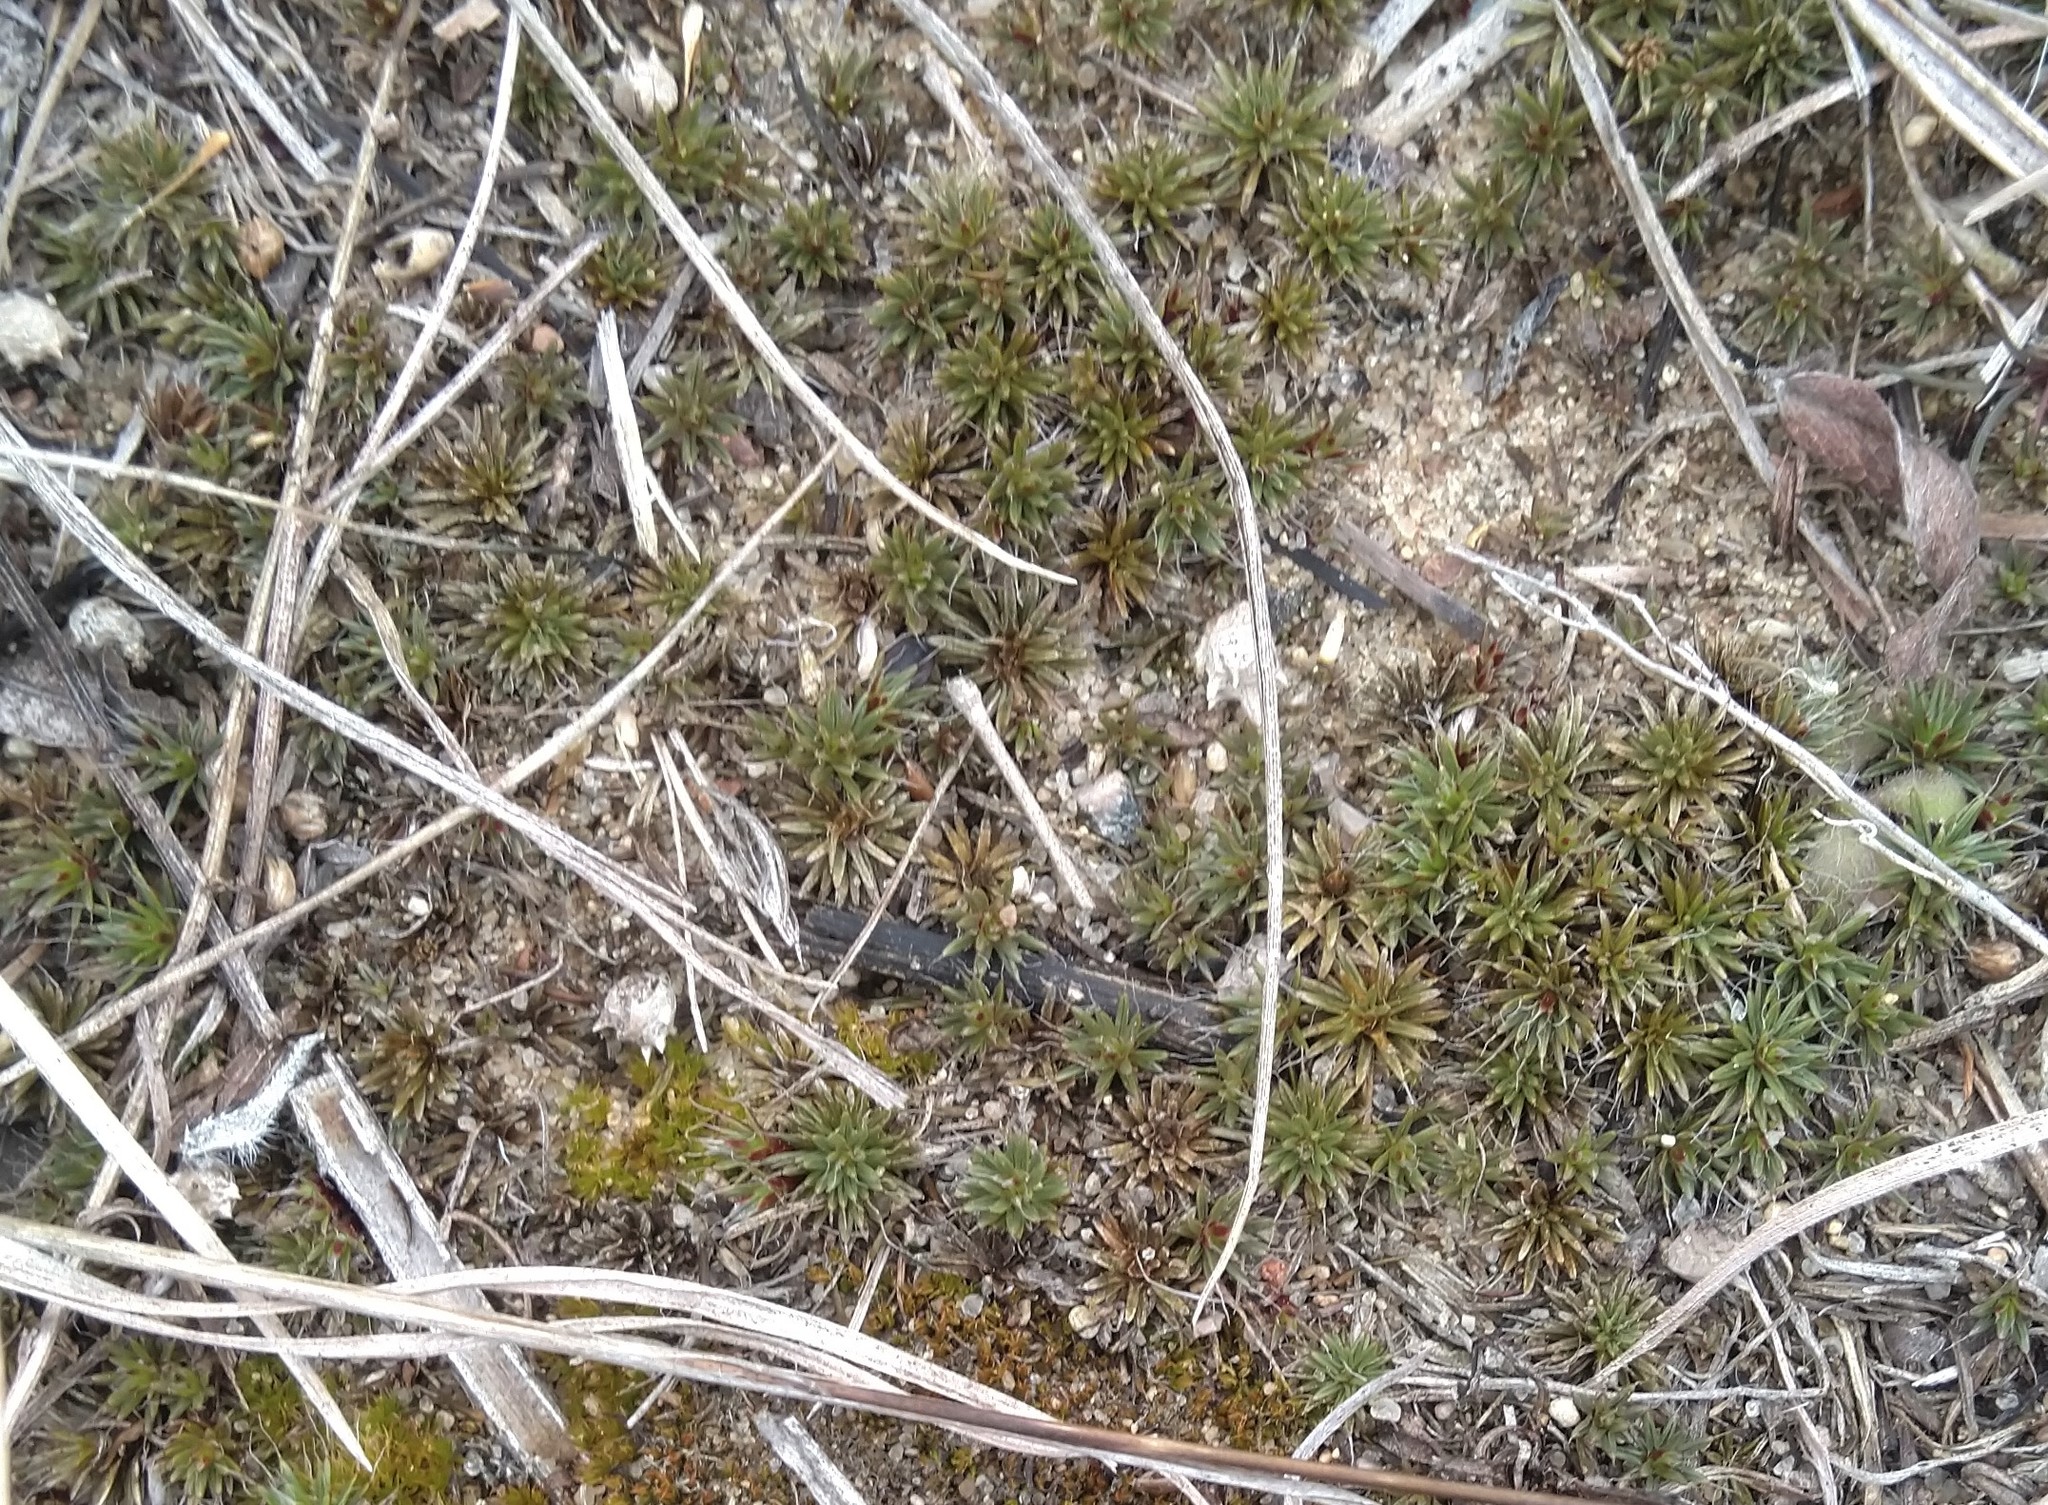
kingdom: Plantae
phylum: Bryophyta
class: Polytrichopsida
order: Polytrichales
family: Polytrichaceae
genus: Polytrichum
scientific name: Polytrichum piliferum
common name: Bristly haircap
